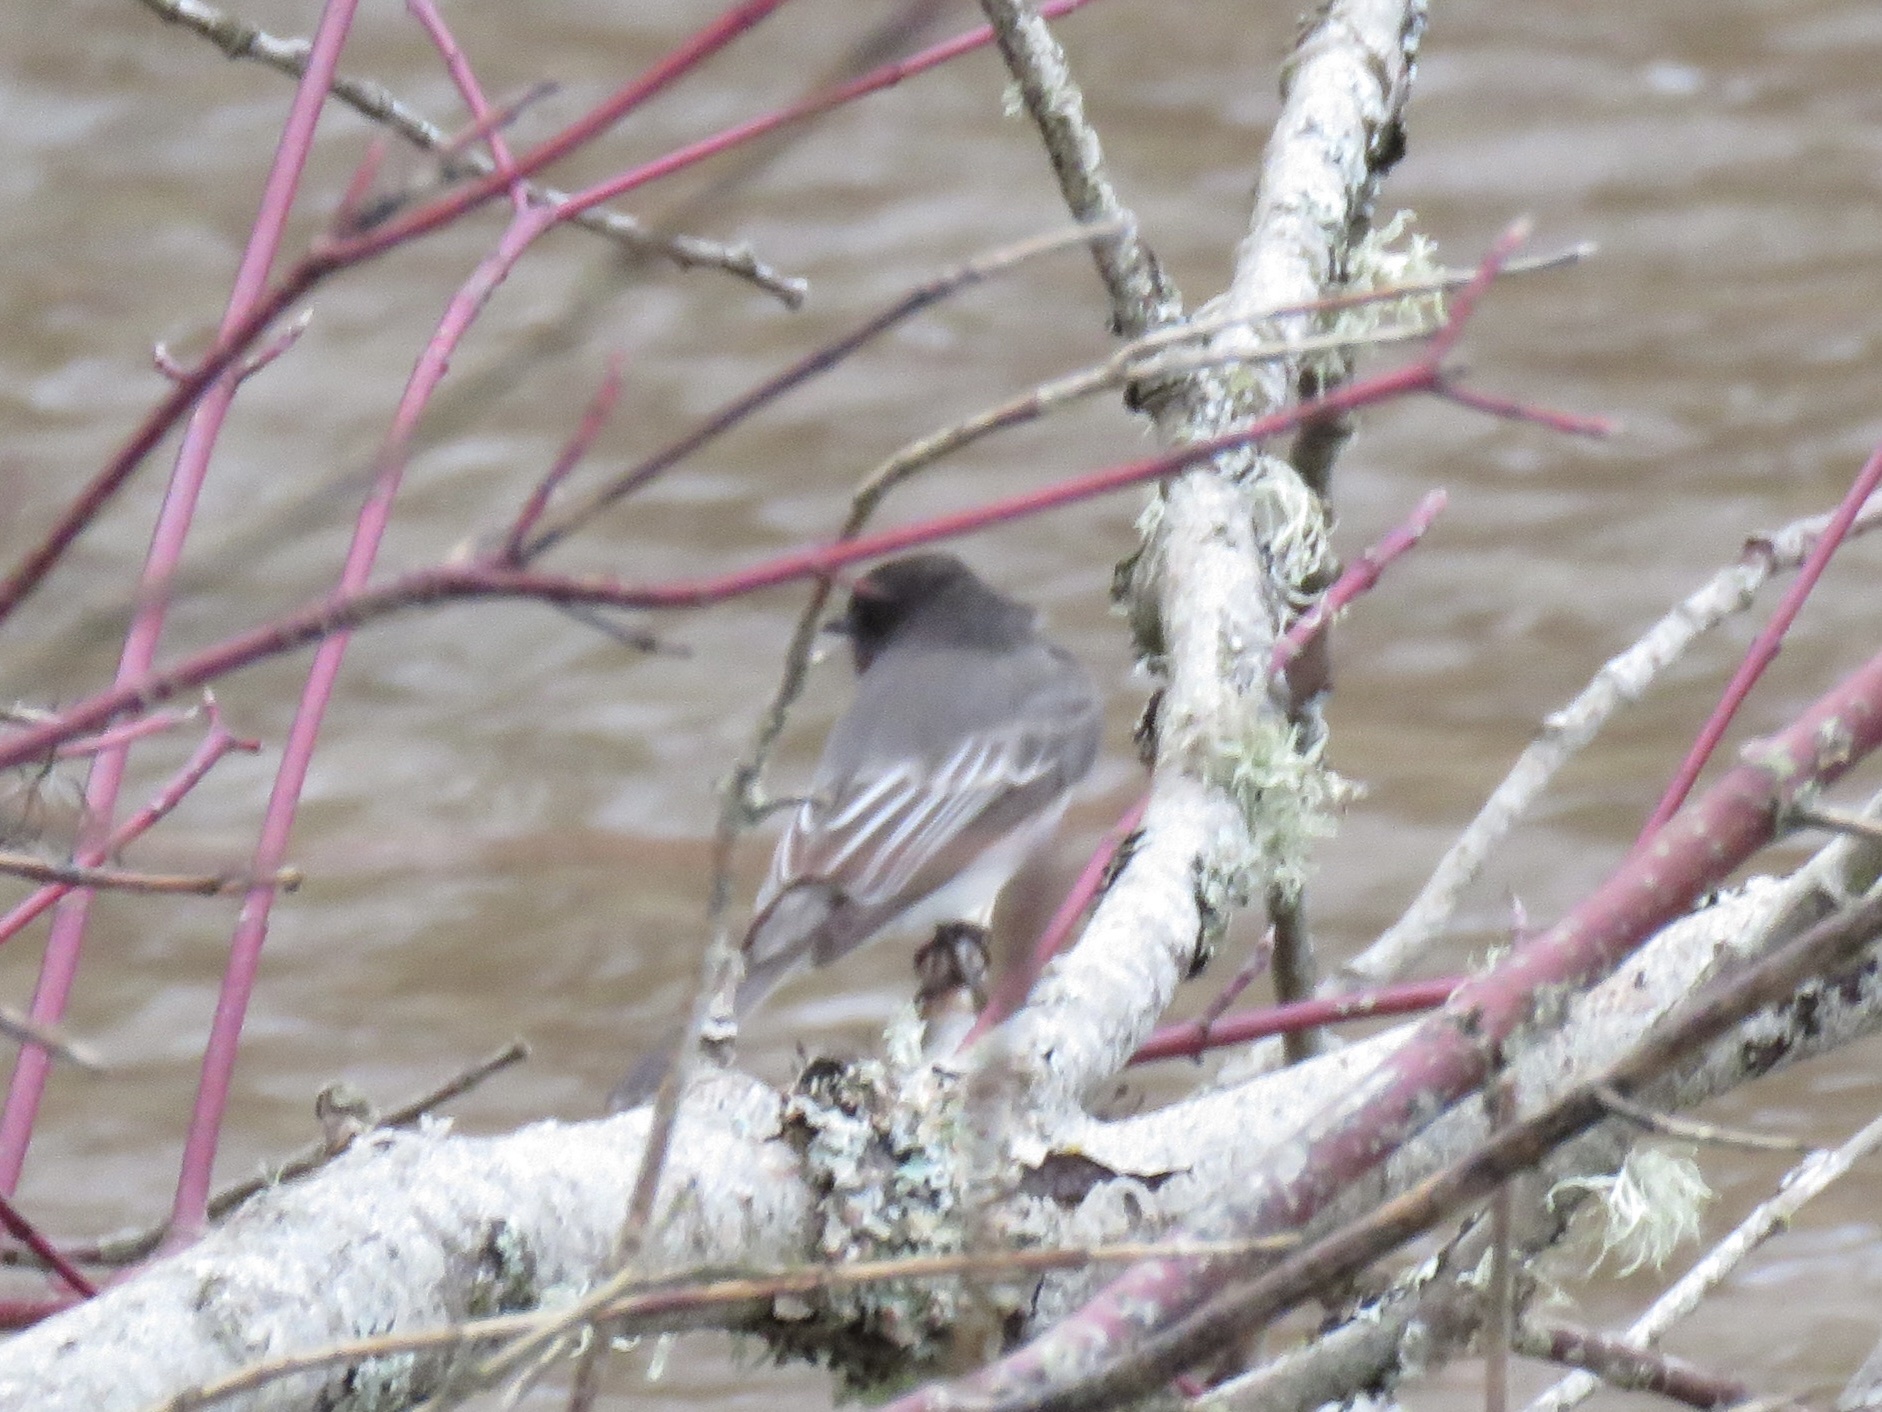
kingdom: Animalia
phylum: Chordata
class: Aves
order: Passeriformes
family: Tyrannidae
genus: Sayornis
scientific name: Sayornis nigricans
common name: Black phoebe
